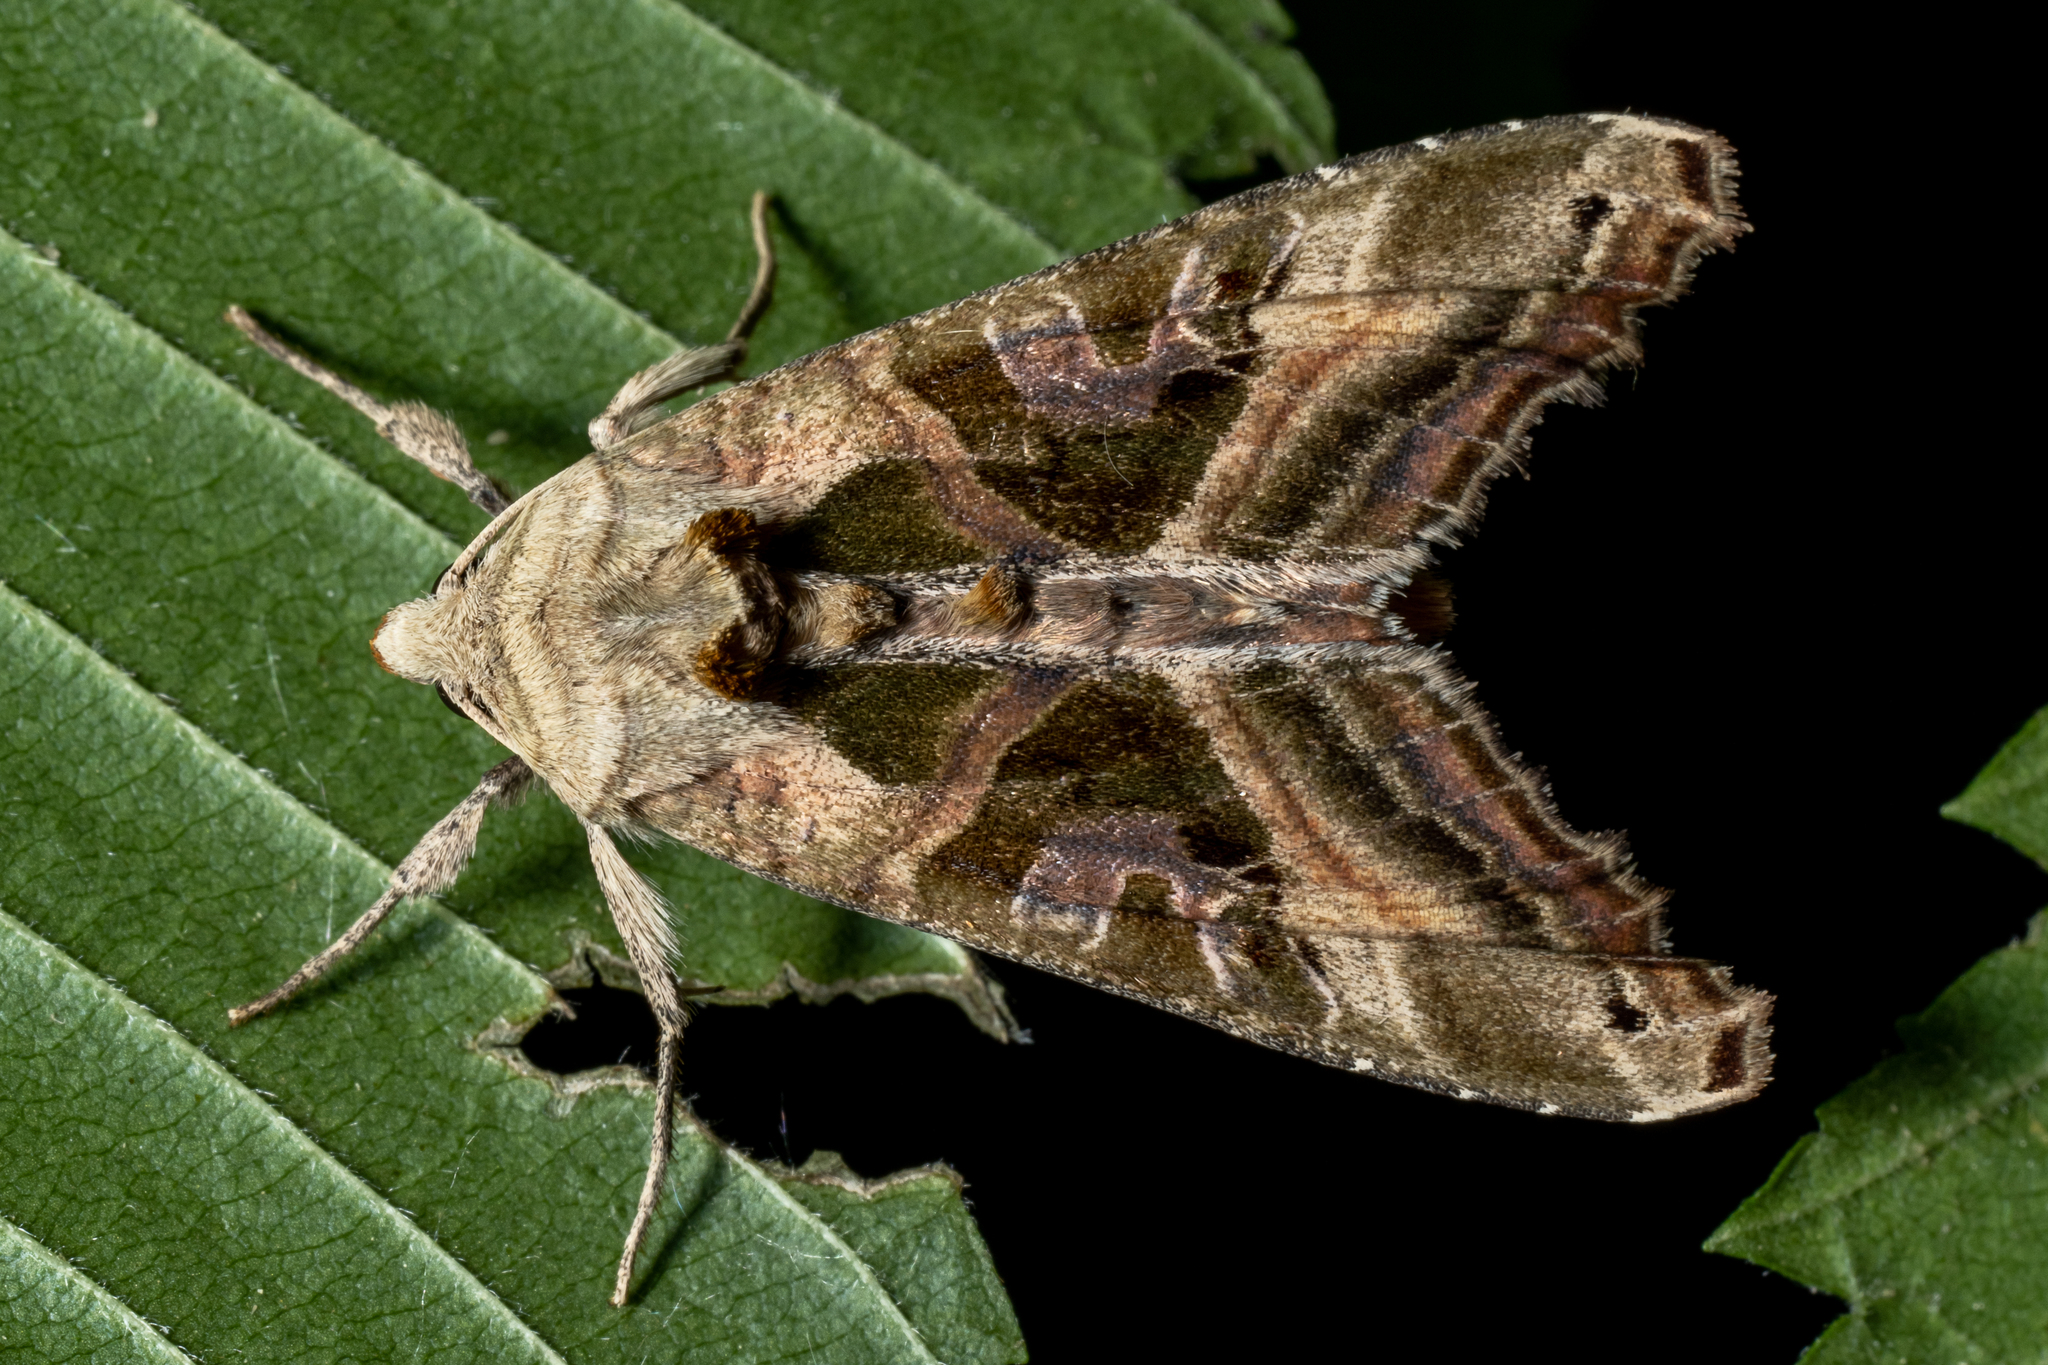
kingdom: Animalia
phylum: Arthropoda
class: Insecta
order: Lepidoptera
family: Noctuidae
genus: Phlogophora
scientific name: Phlogophora iris
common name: Olive angle shades
